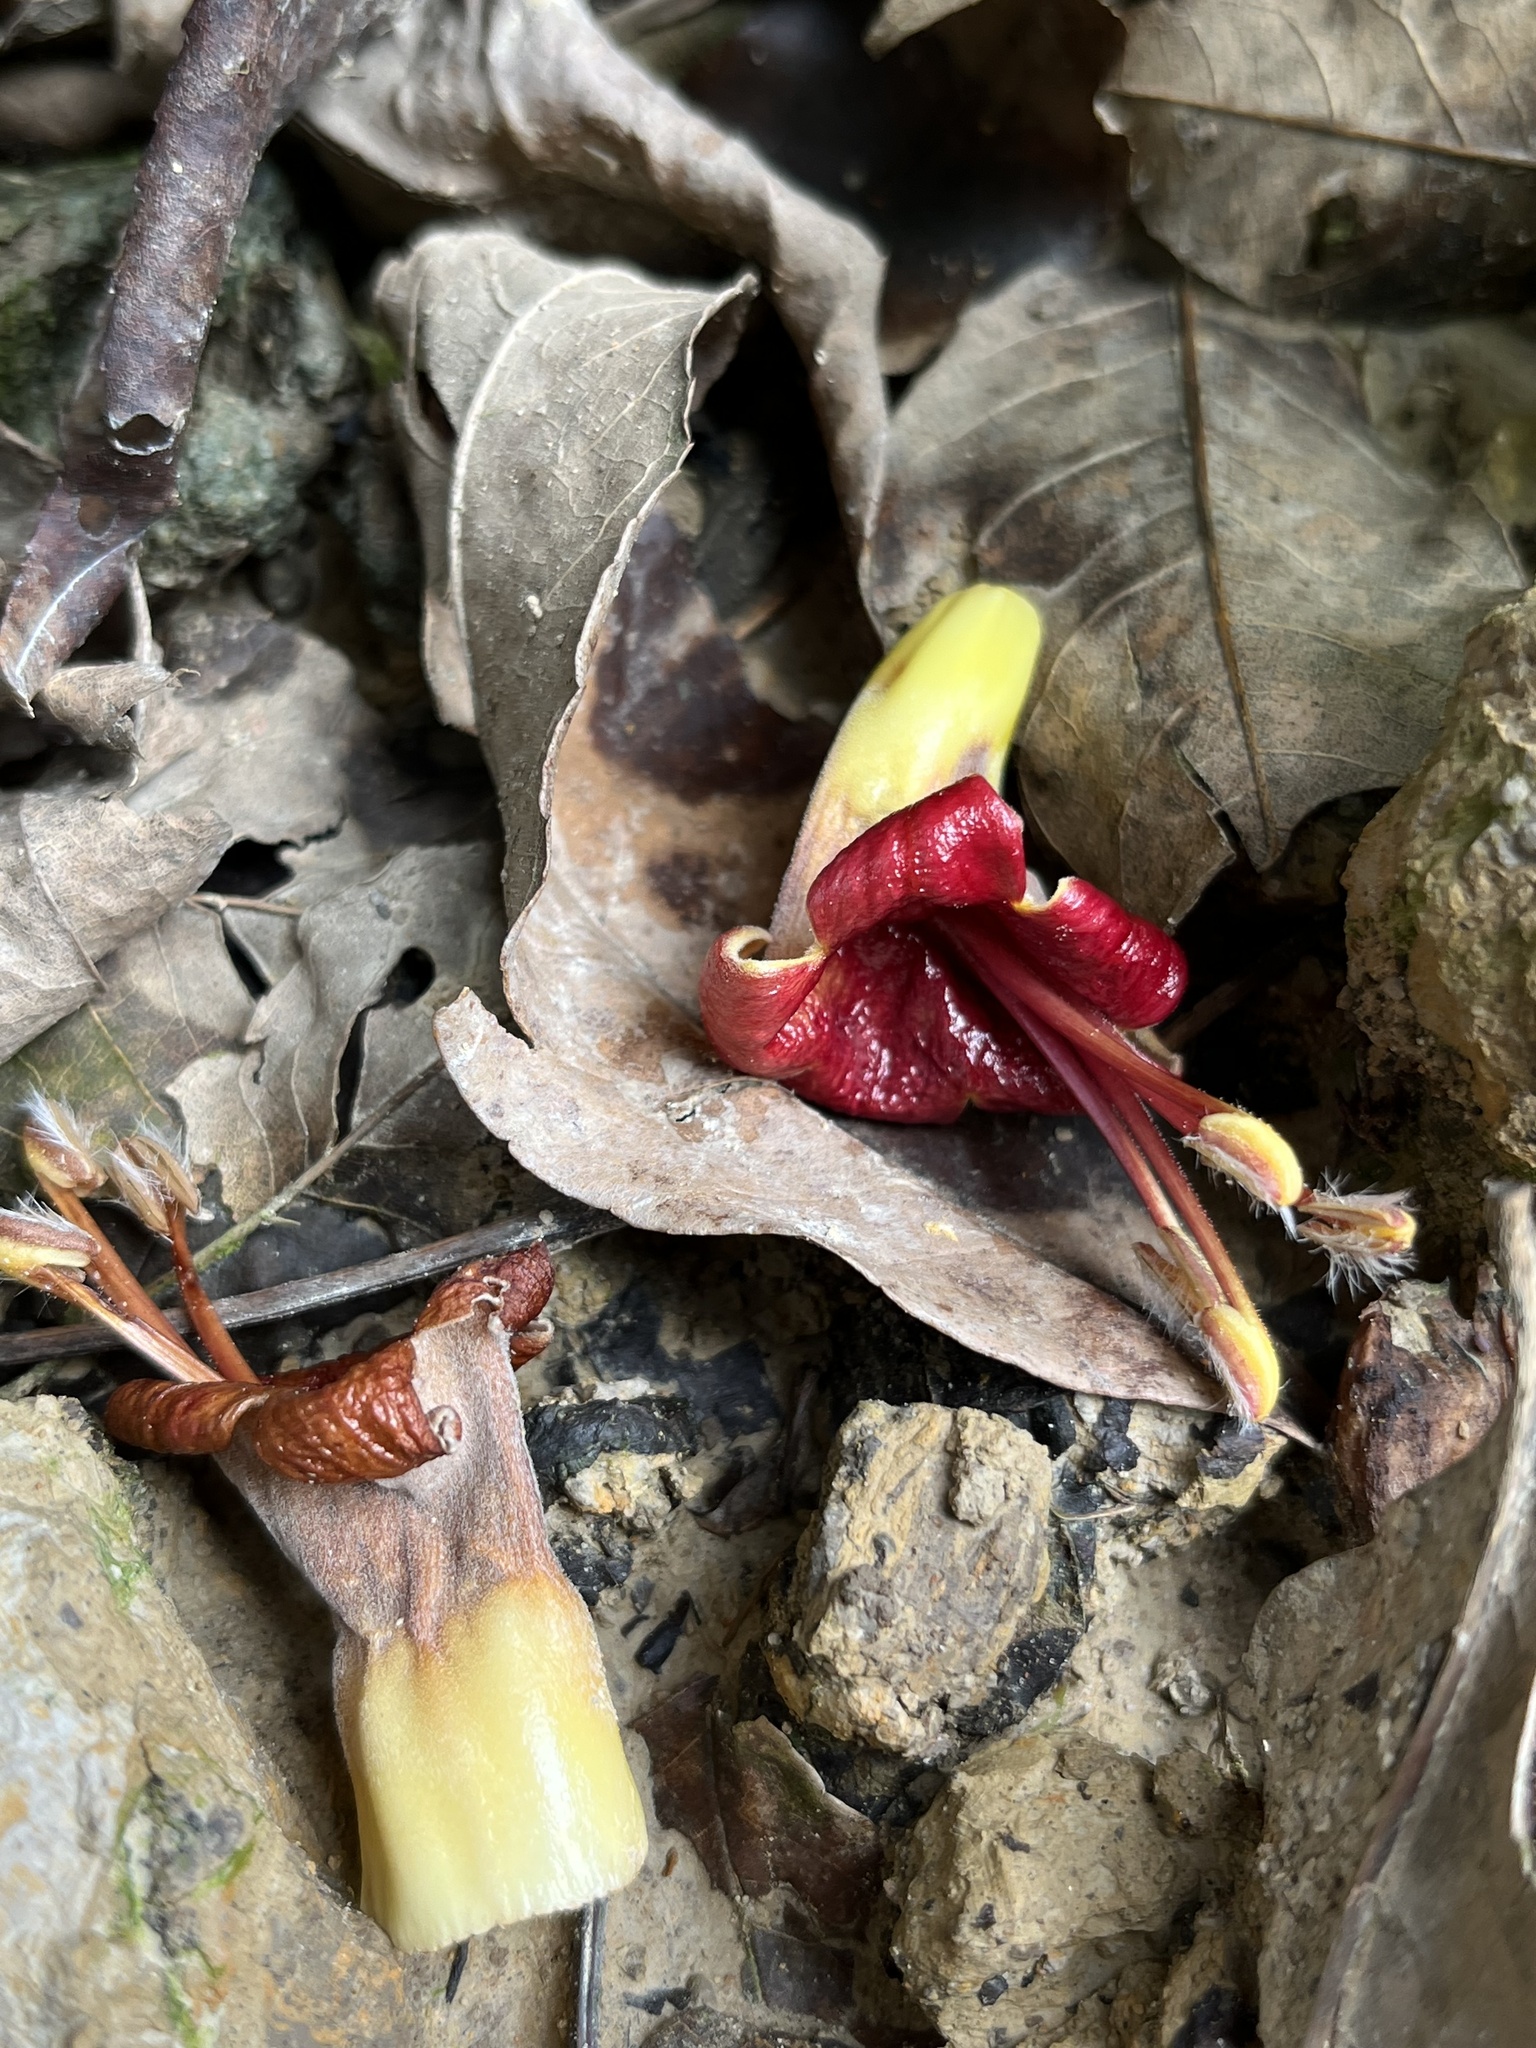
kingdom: Plantae
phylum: Tracheophyta
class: Magnoliopsida
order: Lamiales
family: Acanthaceae
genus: Trichanthera
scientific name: Trichanthera gigantea
